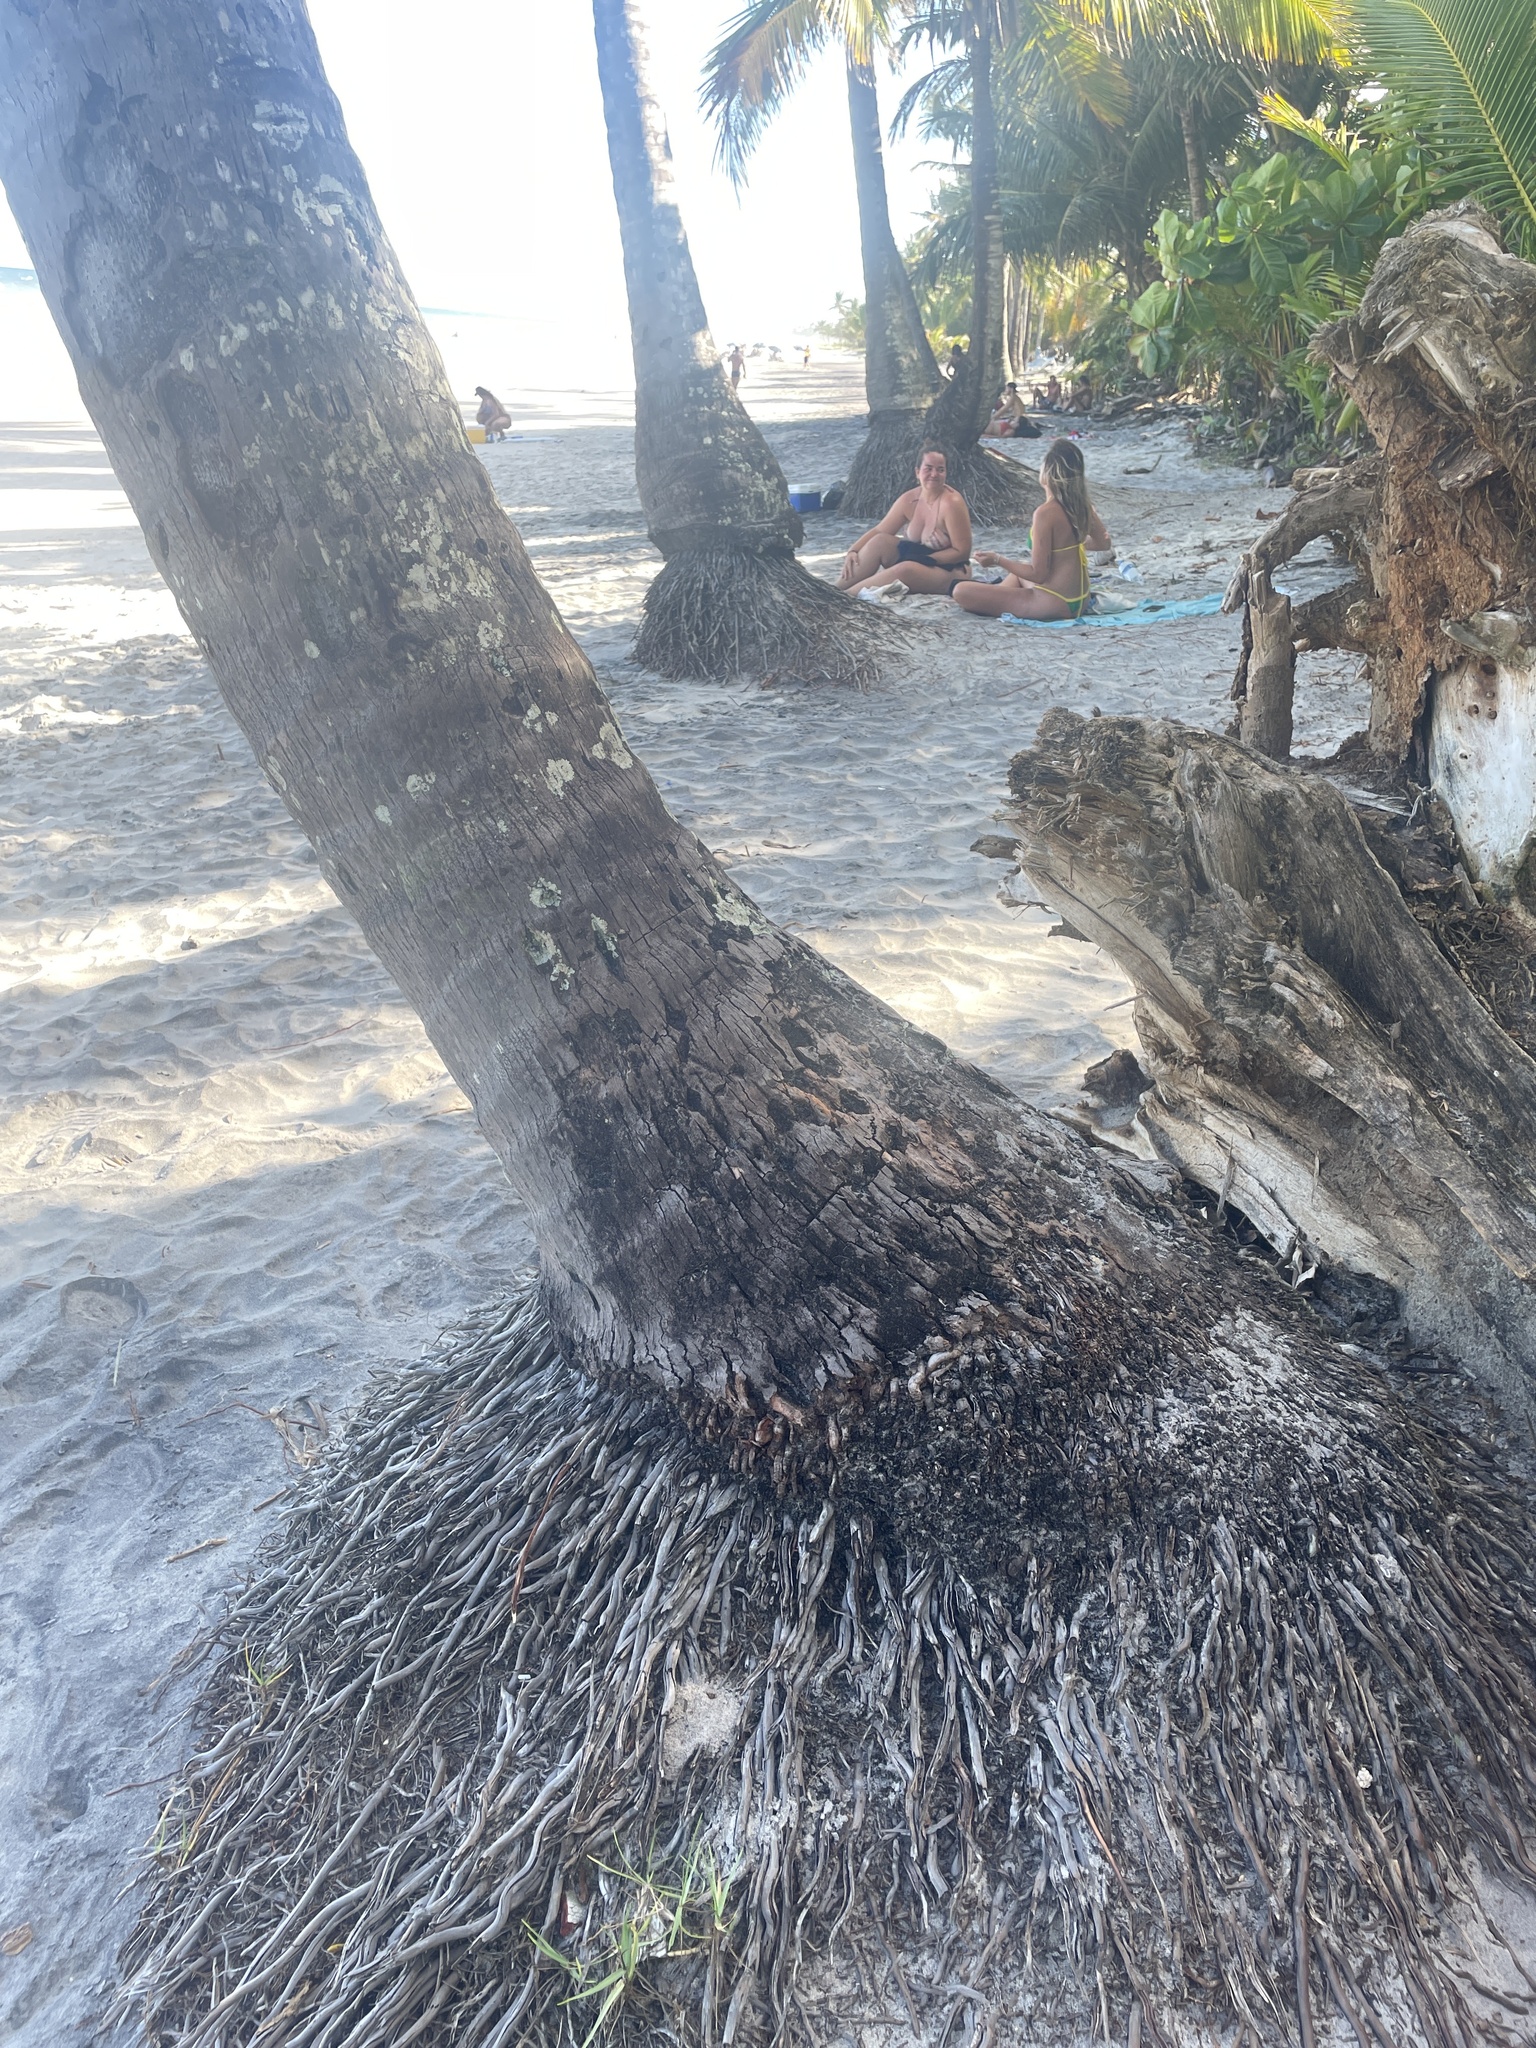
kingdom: Plantae
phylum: Tracheophyta
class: Liliopsida
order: Arecales
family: Arecaceae
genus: Cocos
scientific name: Cocos nucifera
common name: Coconut palm
